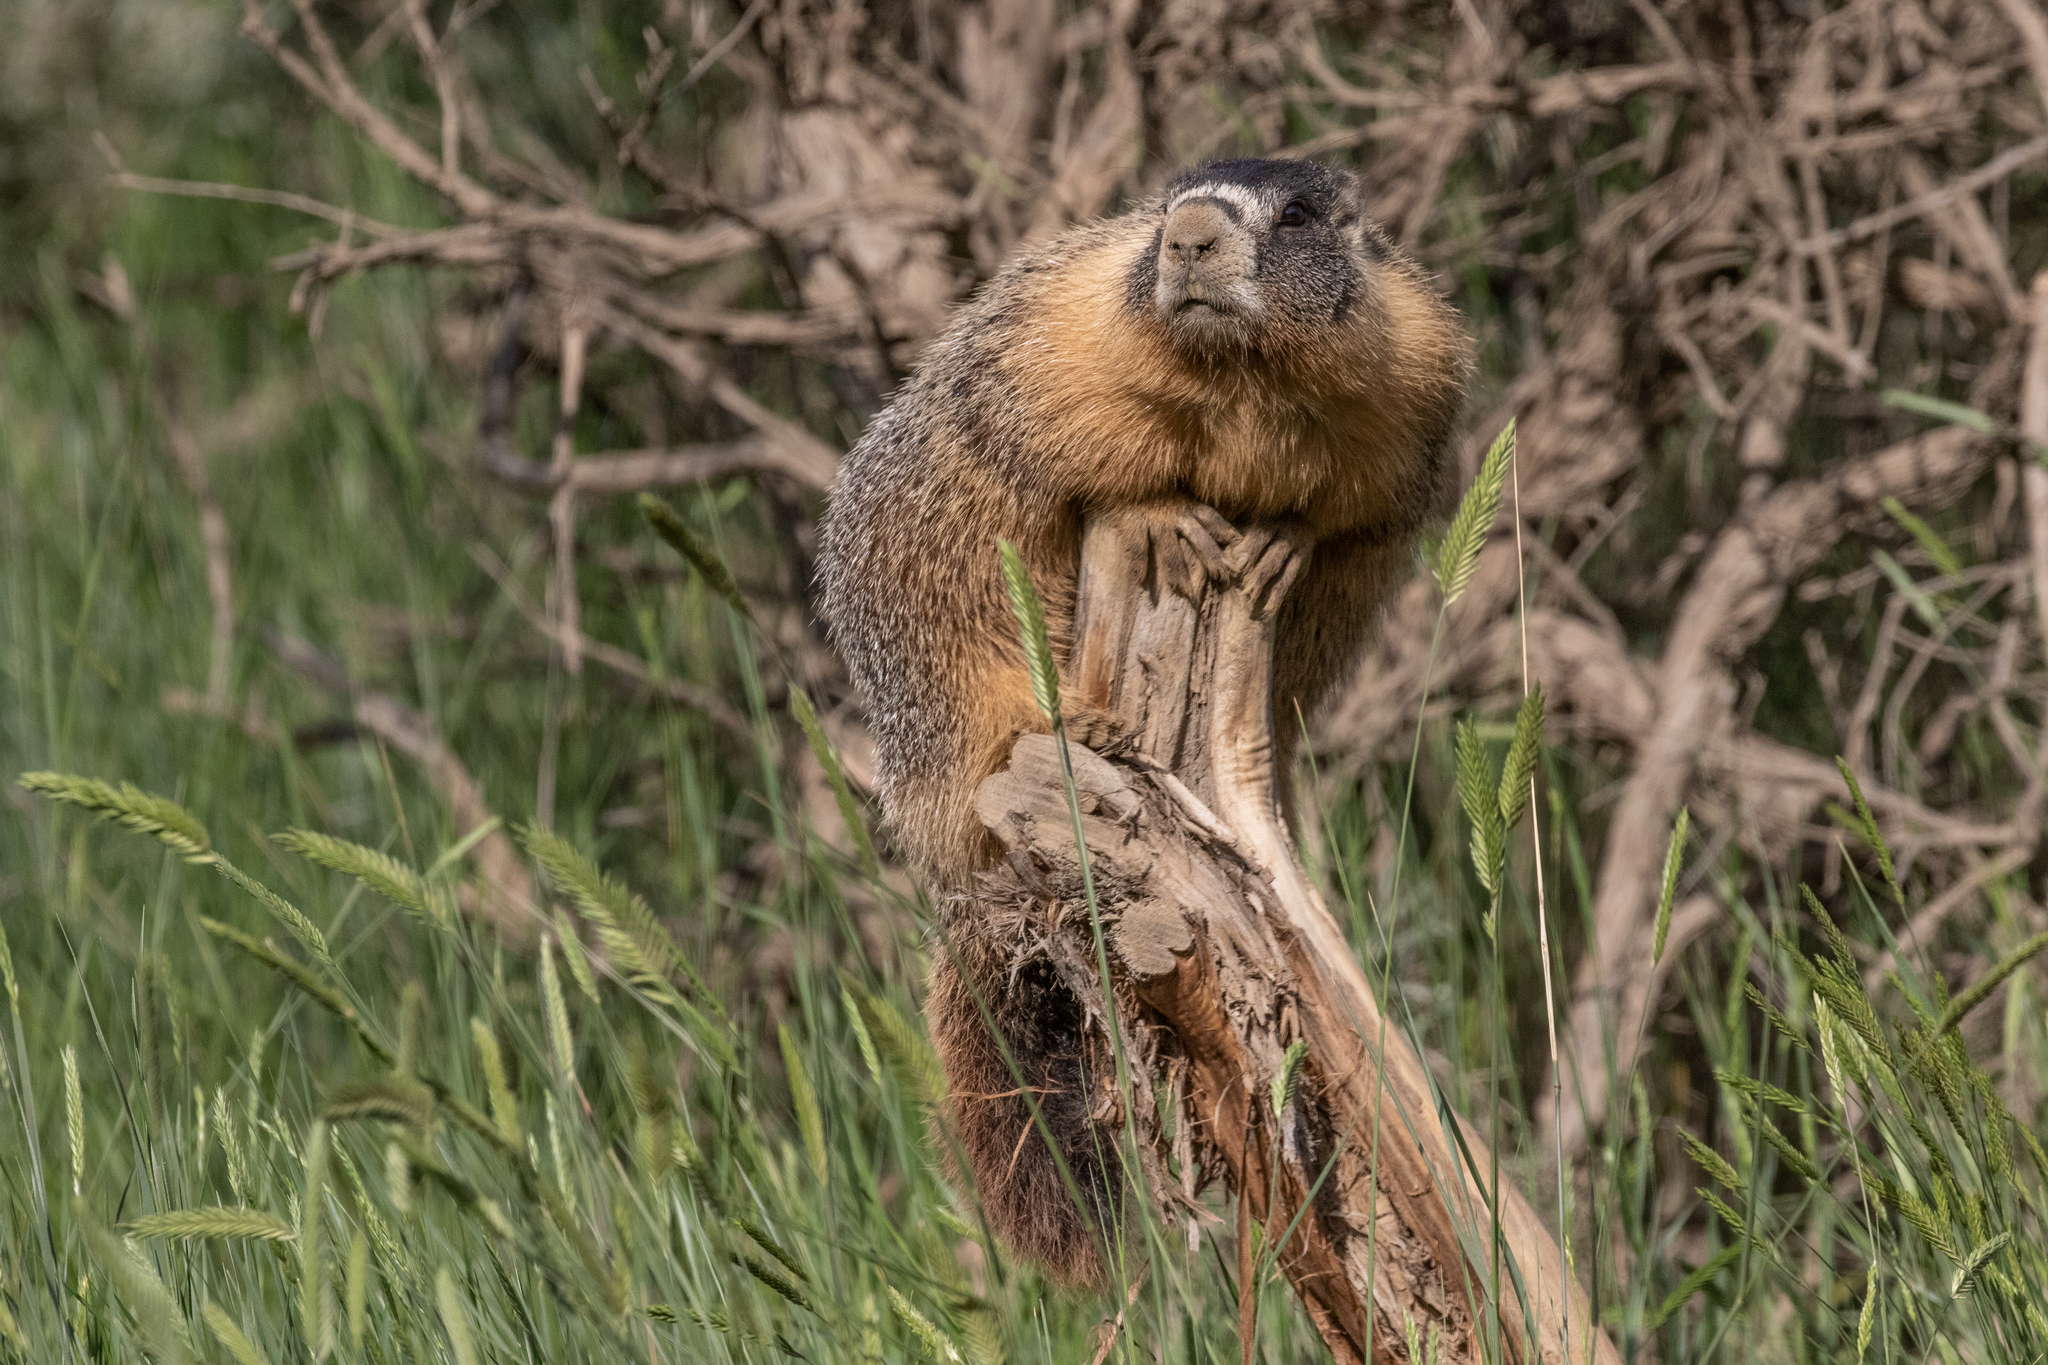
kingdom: Animalia
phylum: Chordata
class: Mammalia
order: Rodentia
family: Sciuridae
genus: Marmota
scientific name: Marmota flaviventris
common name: Yellow-bellied marmot
